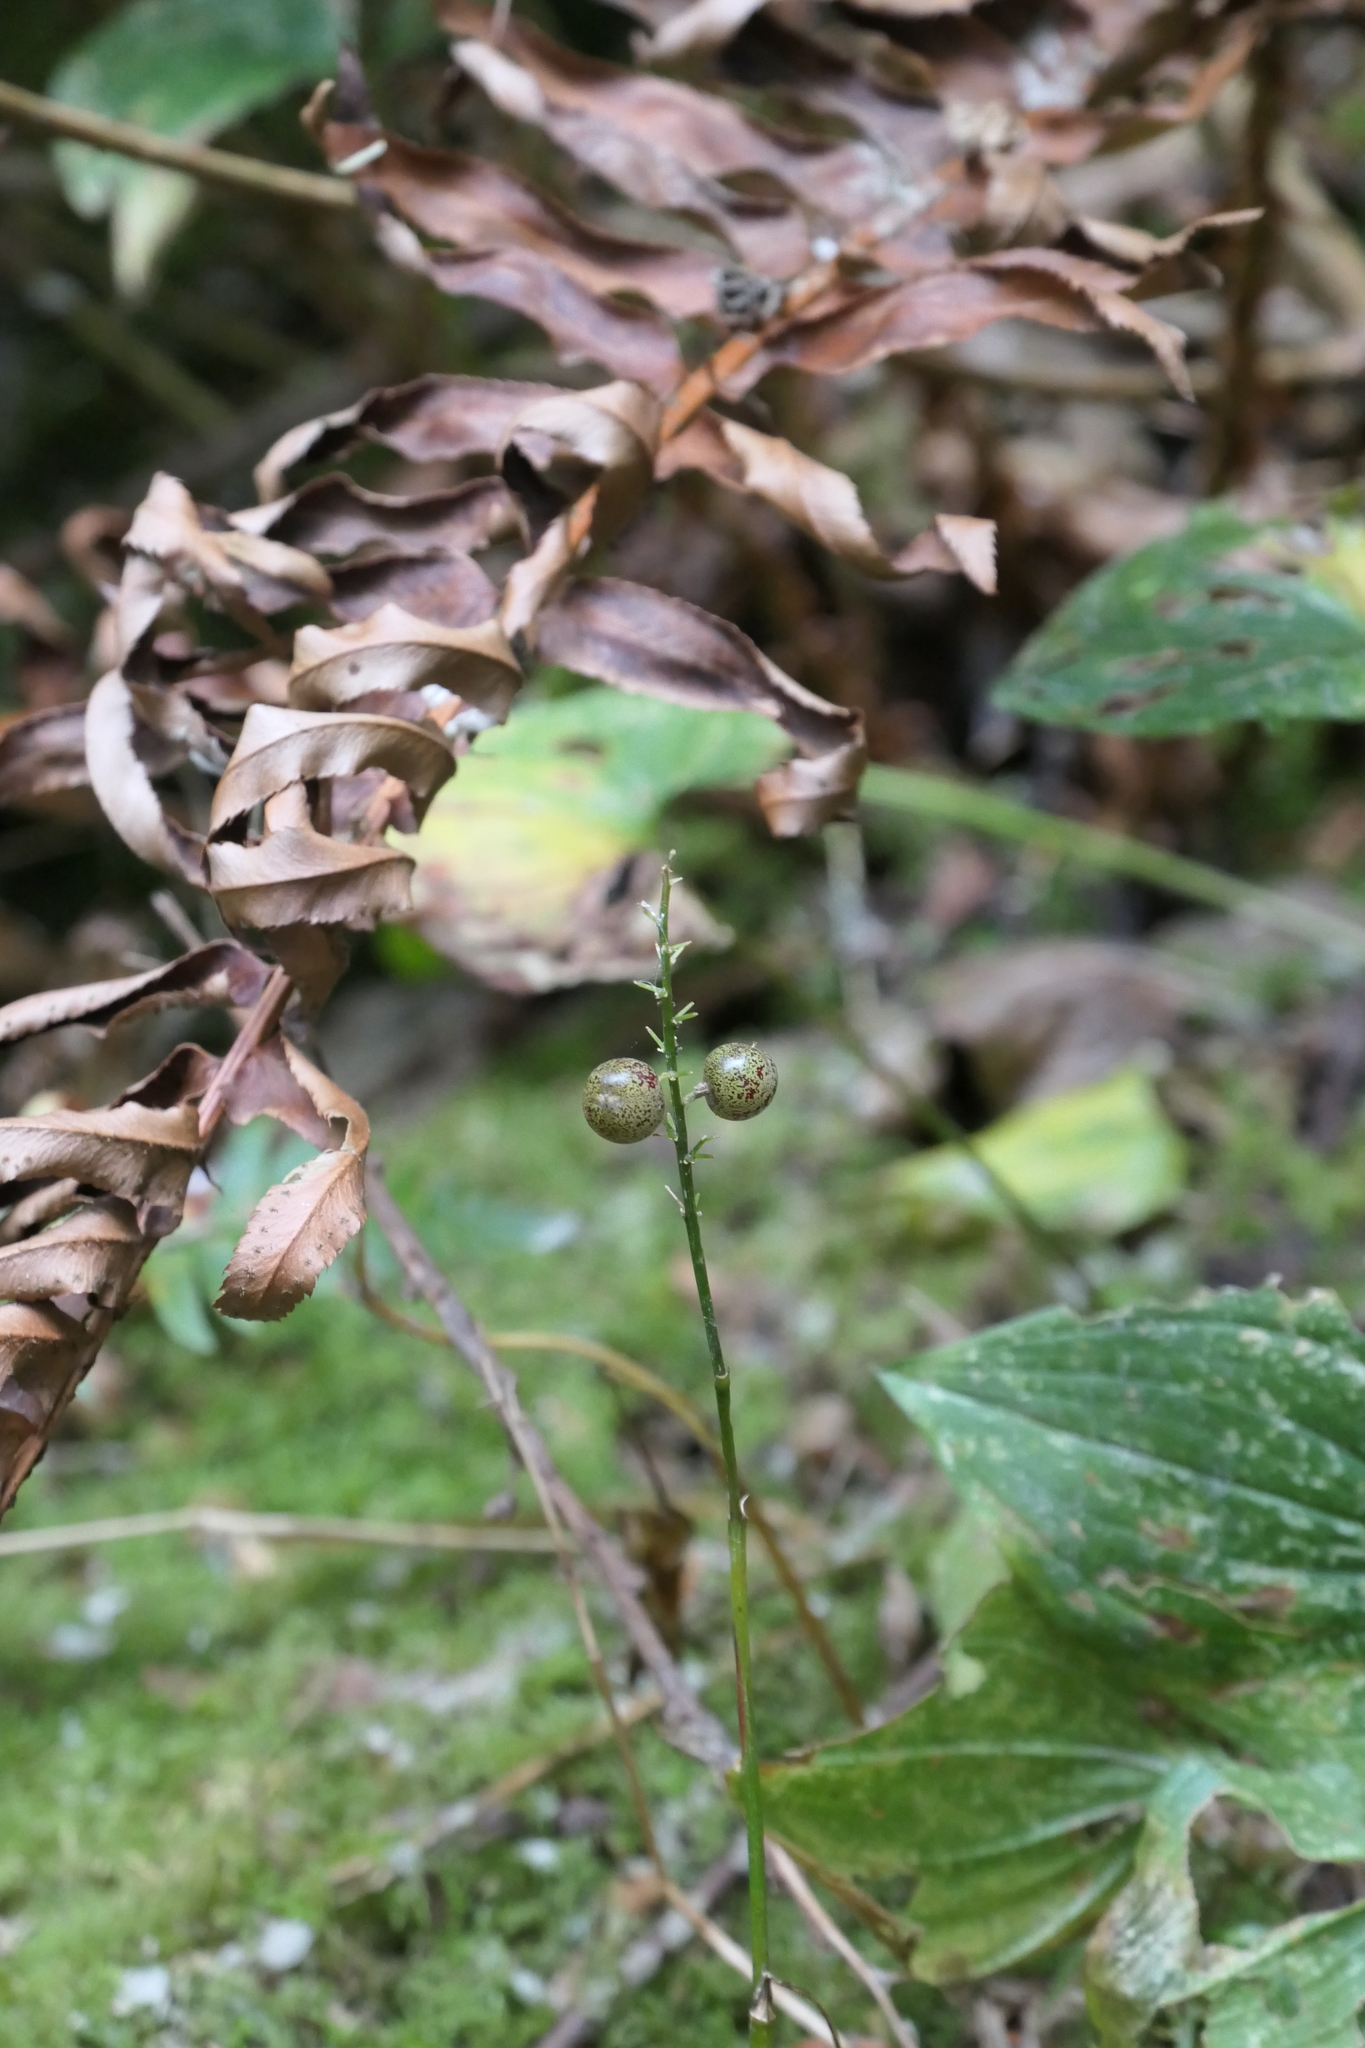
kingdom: Plantae
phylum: Tracheophyta
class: Liliopsida
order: Asparagales
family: Asparagaceae
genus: Maianthemum
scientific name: Maianthemum dilatatum
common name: False lily-of-the-valley
